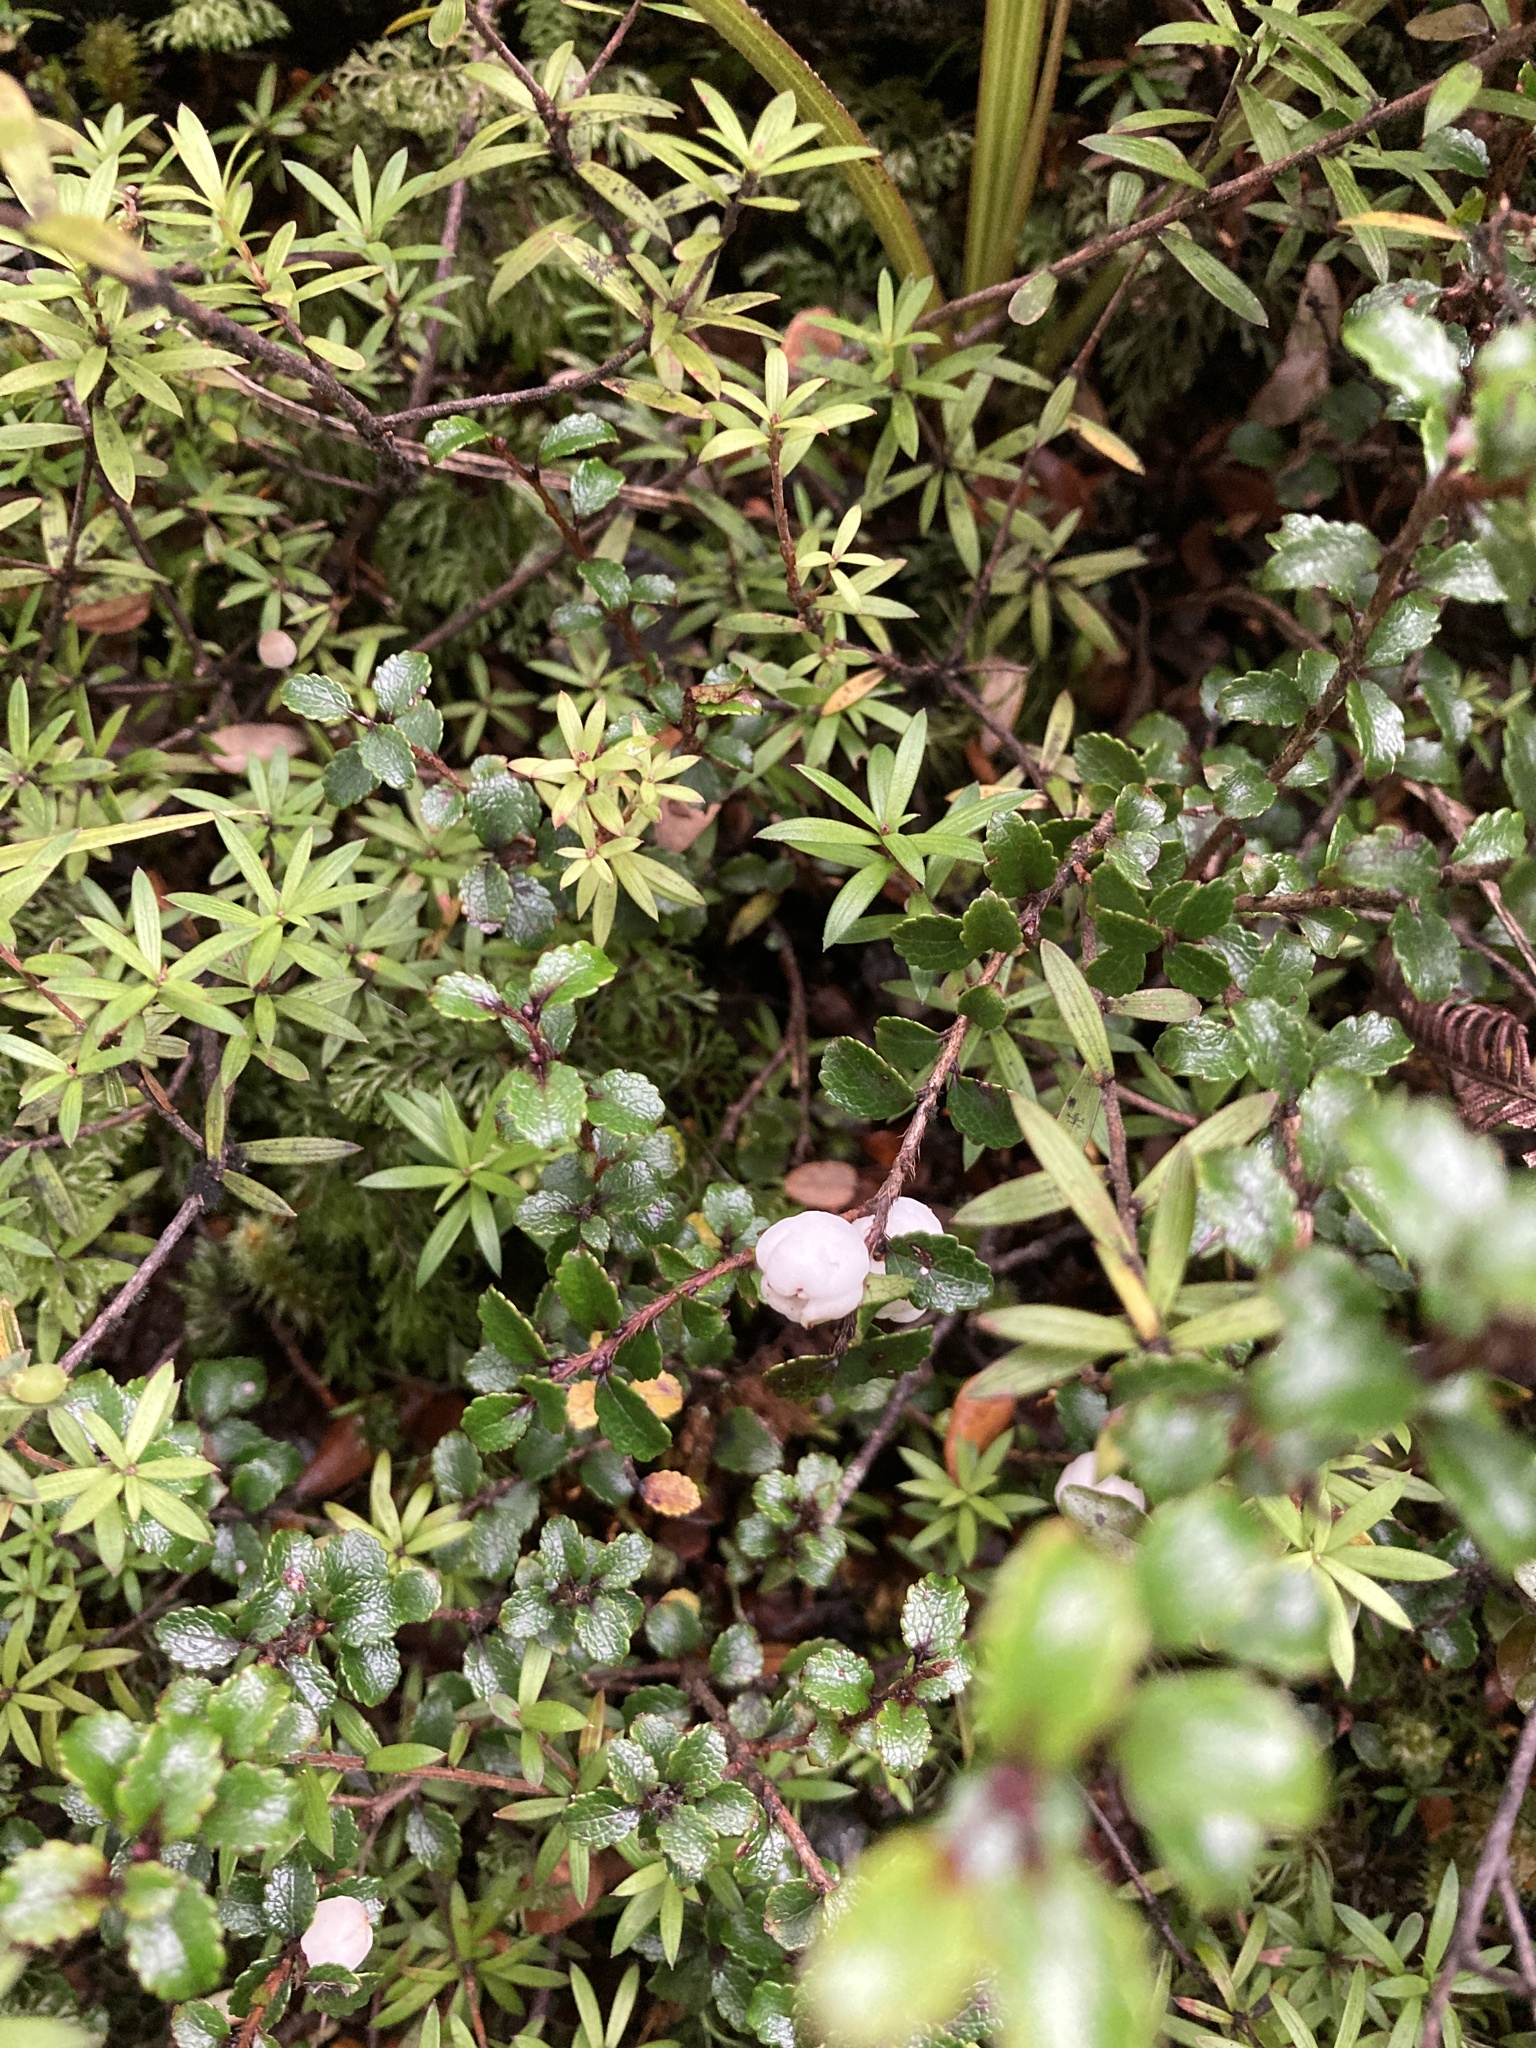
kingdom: Plantae
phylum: Tracheophyta
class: Magnoliopsida
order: Ericales
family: Ericaceae
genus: Gaultheria
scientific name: Gaultheria depressa
